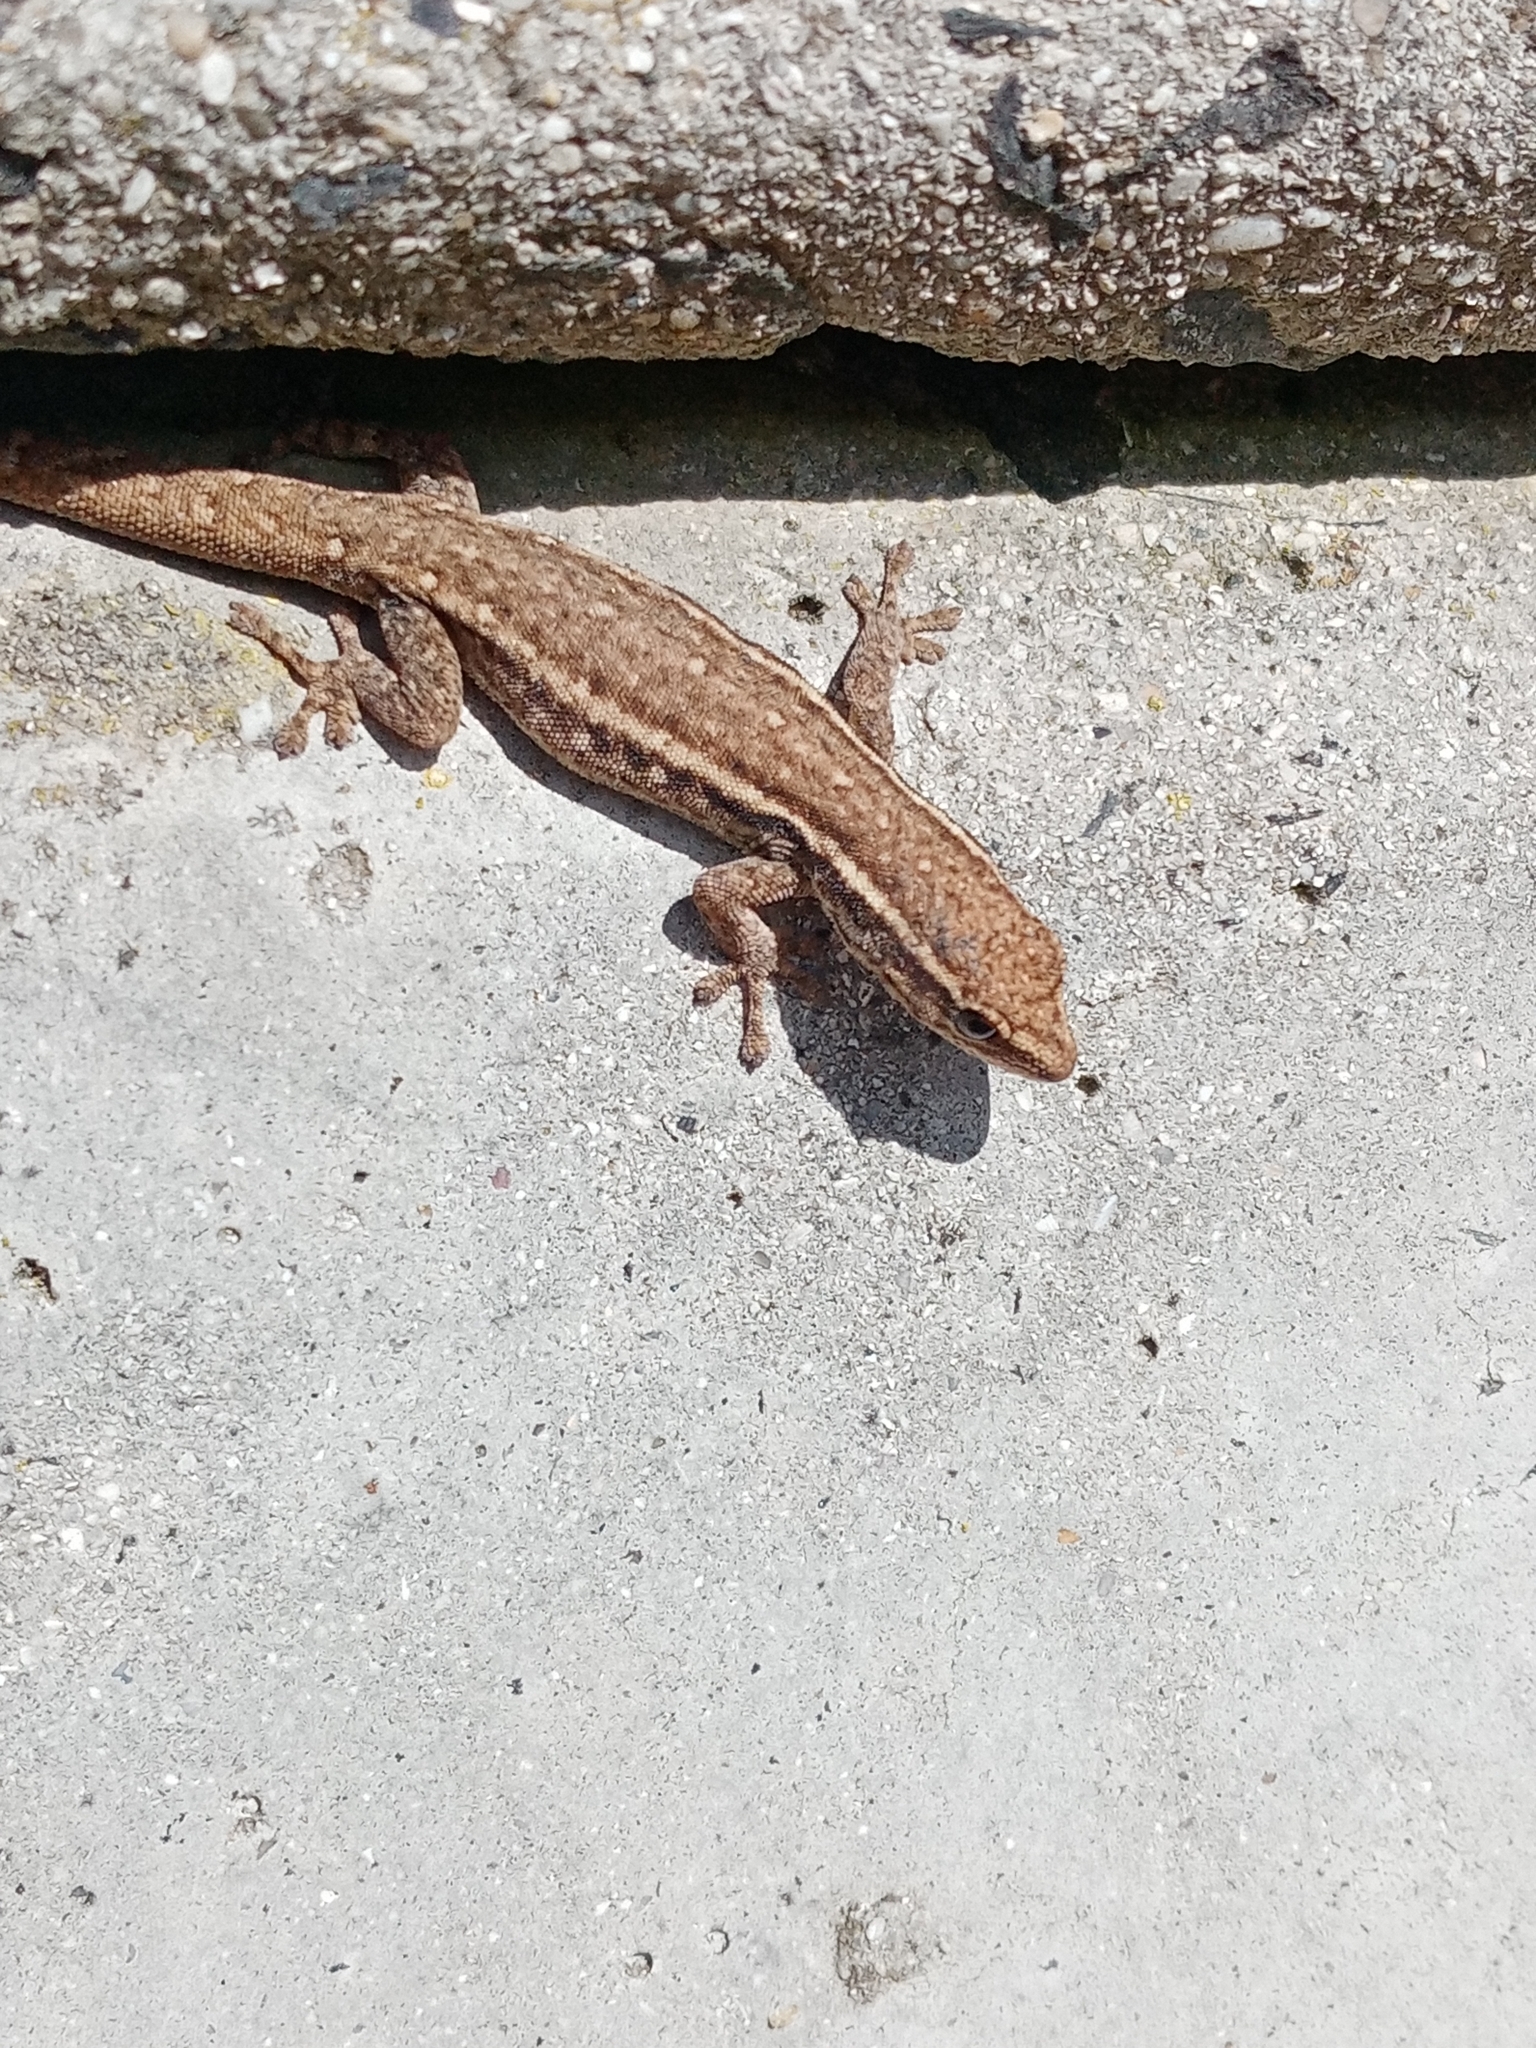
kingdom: Animalia
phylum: Chordata
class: Squamata
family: Gekkonidae
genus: Lygodactylus
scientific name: Lygodactylus capensis
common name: Cape dwarf gecko
